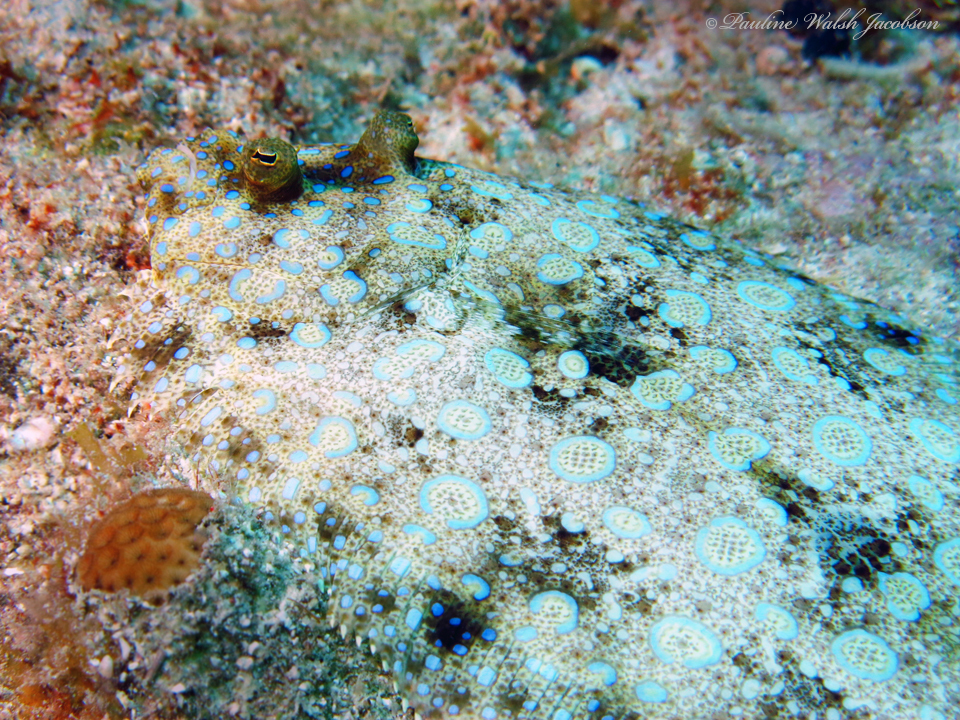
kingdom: Animalia
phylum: Chordata
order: Pleuronectiformes
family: Bothidae
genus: Bothus
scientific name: Bothus lunatus
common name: Peacock flounder
